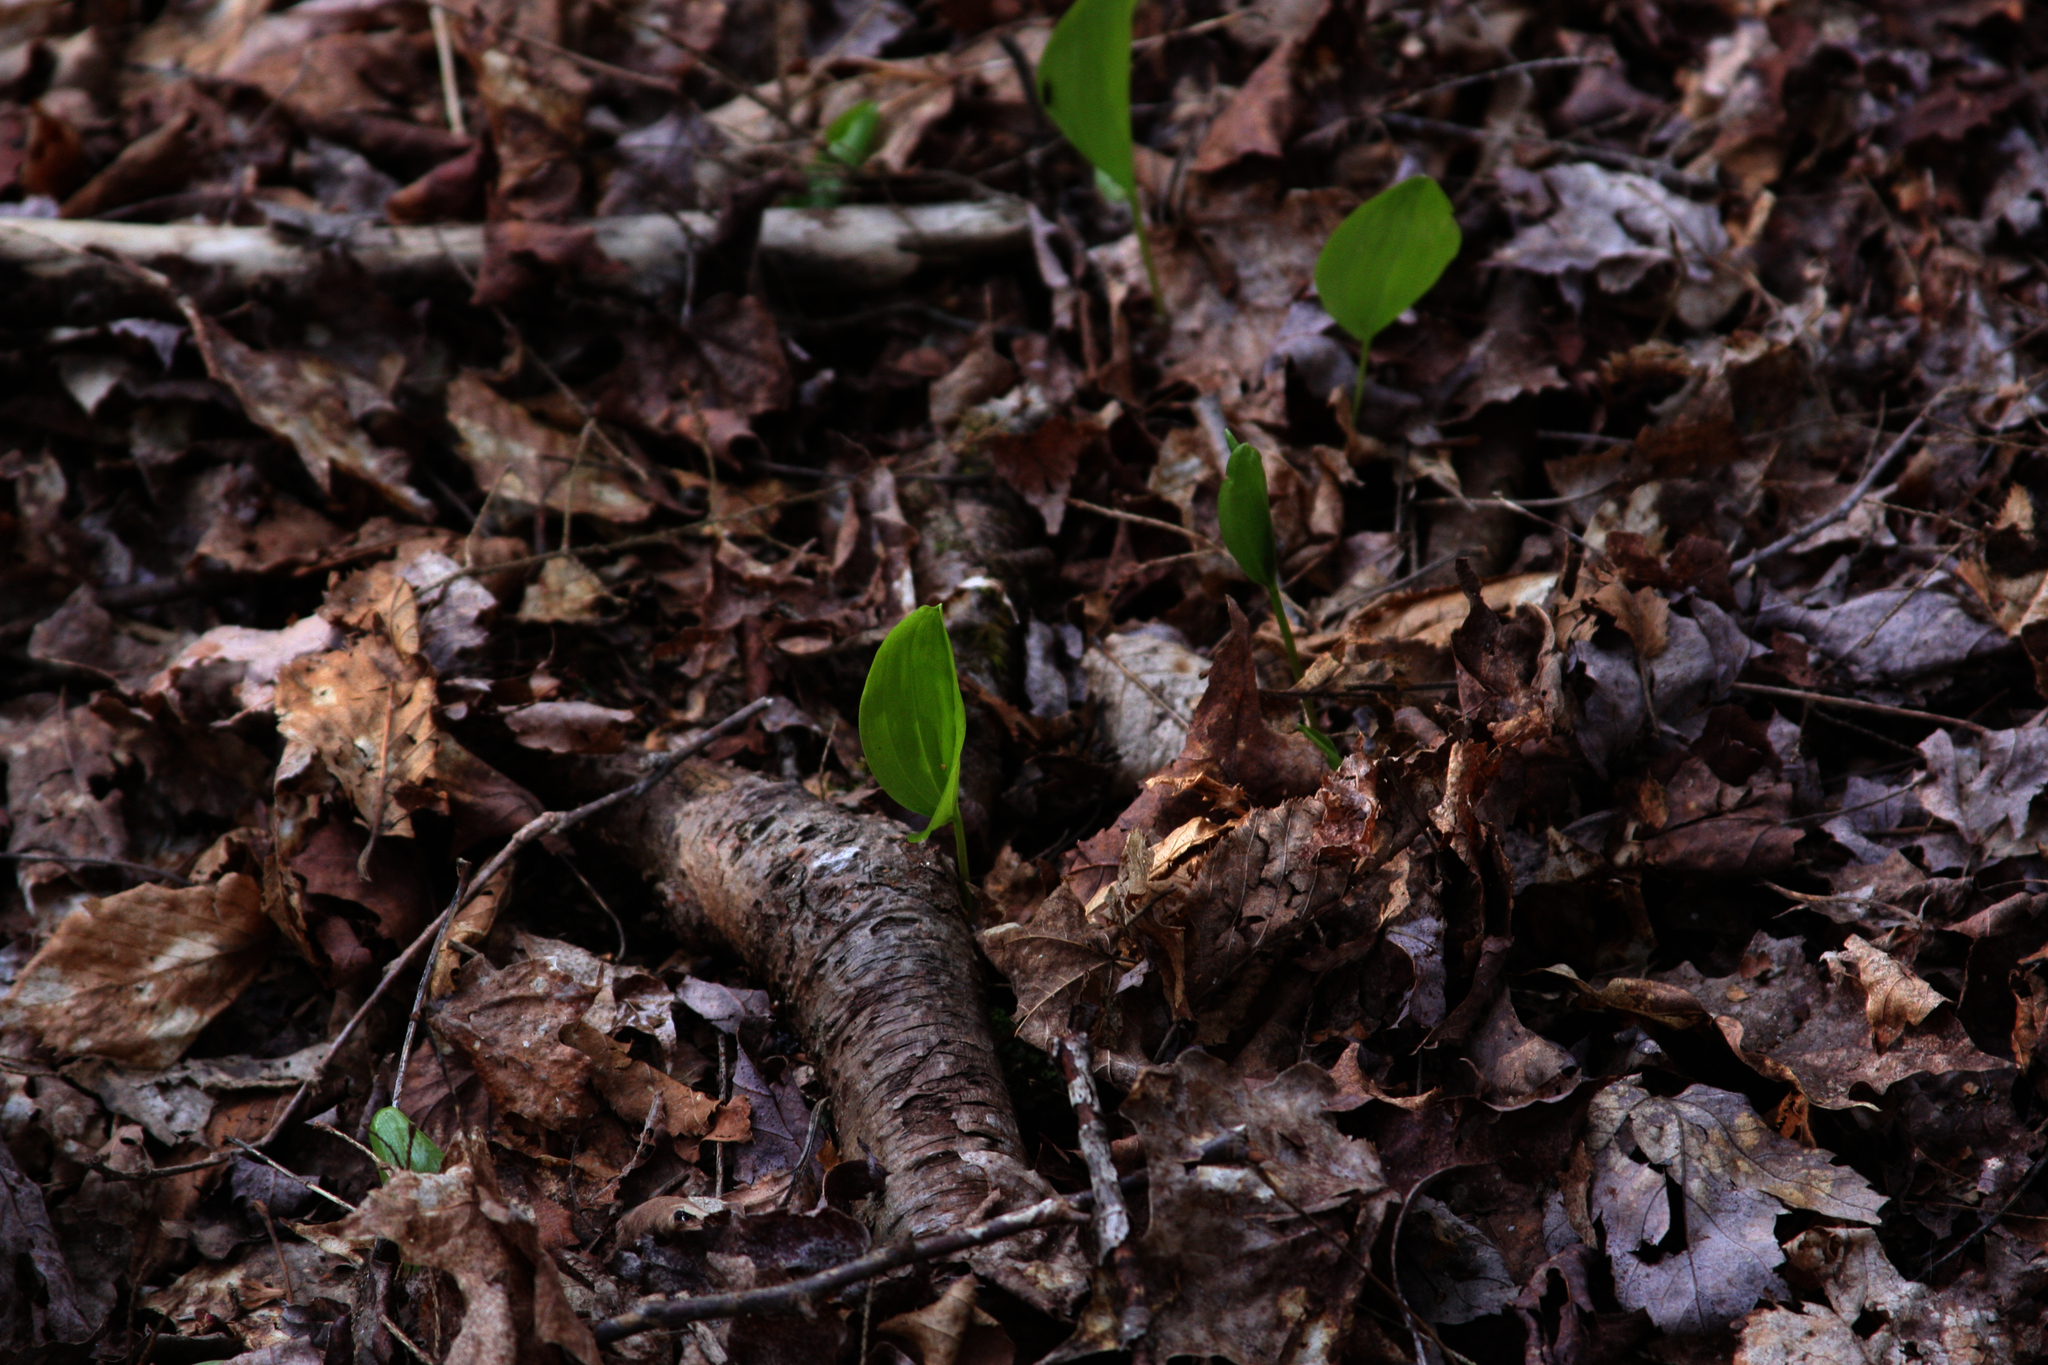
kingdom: Plantae
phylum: Tracheophyta
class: Liliopsida
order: Asparagales
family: Asparagaceae
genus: Maianthemum
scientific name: Maianthemum canadense
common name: False lily-of-the-valley
